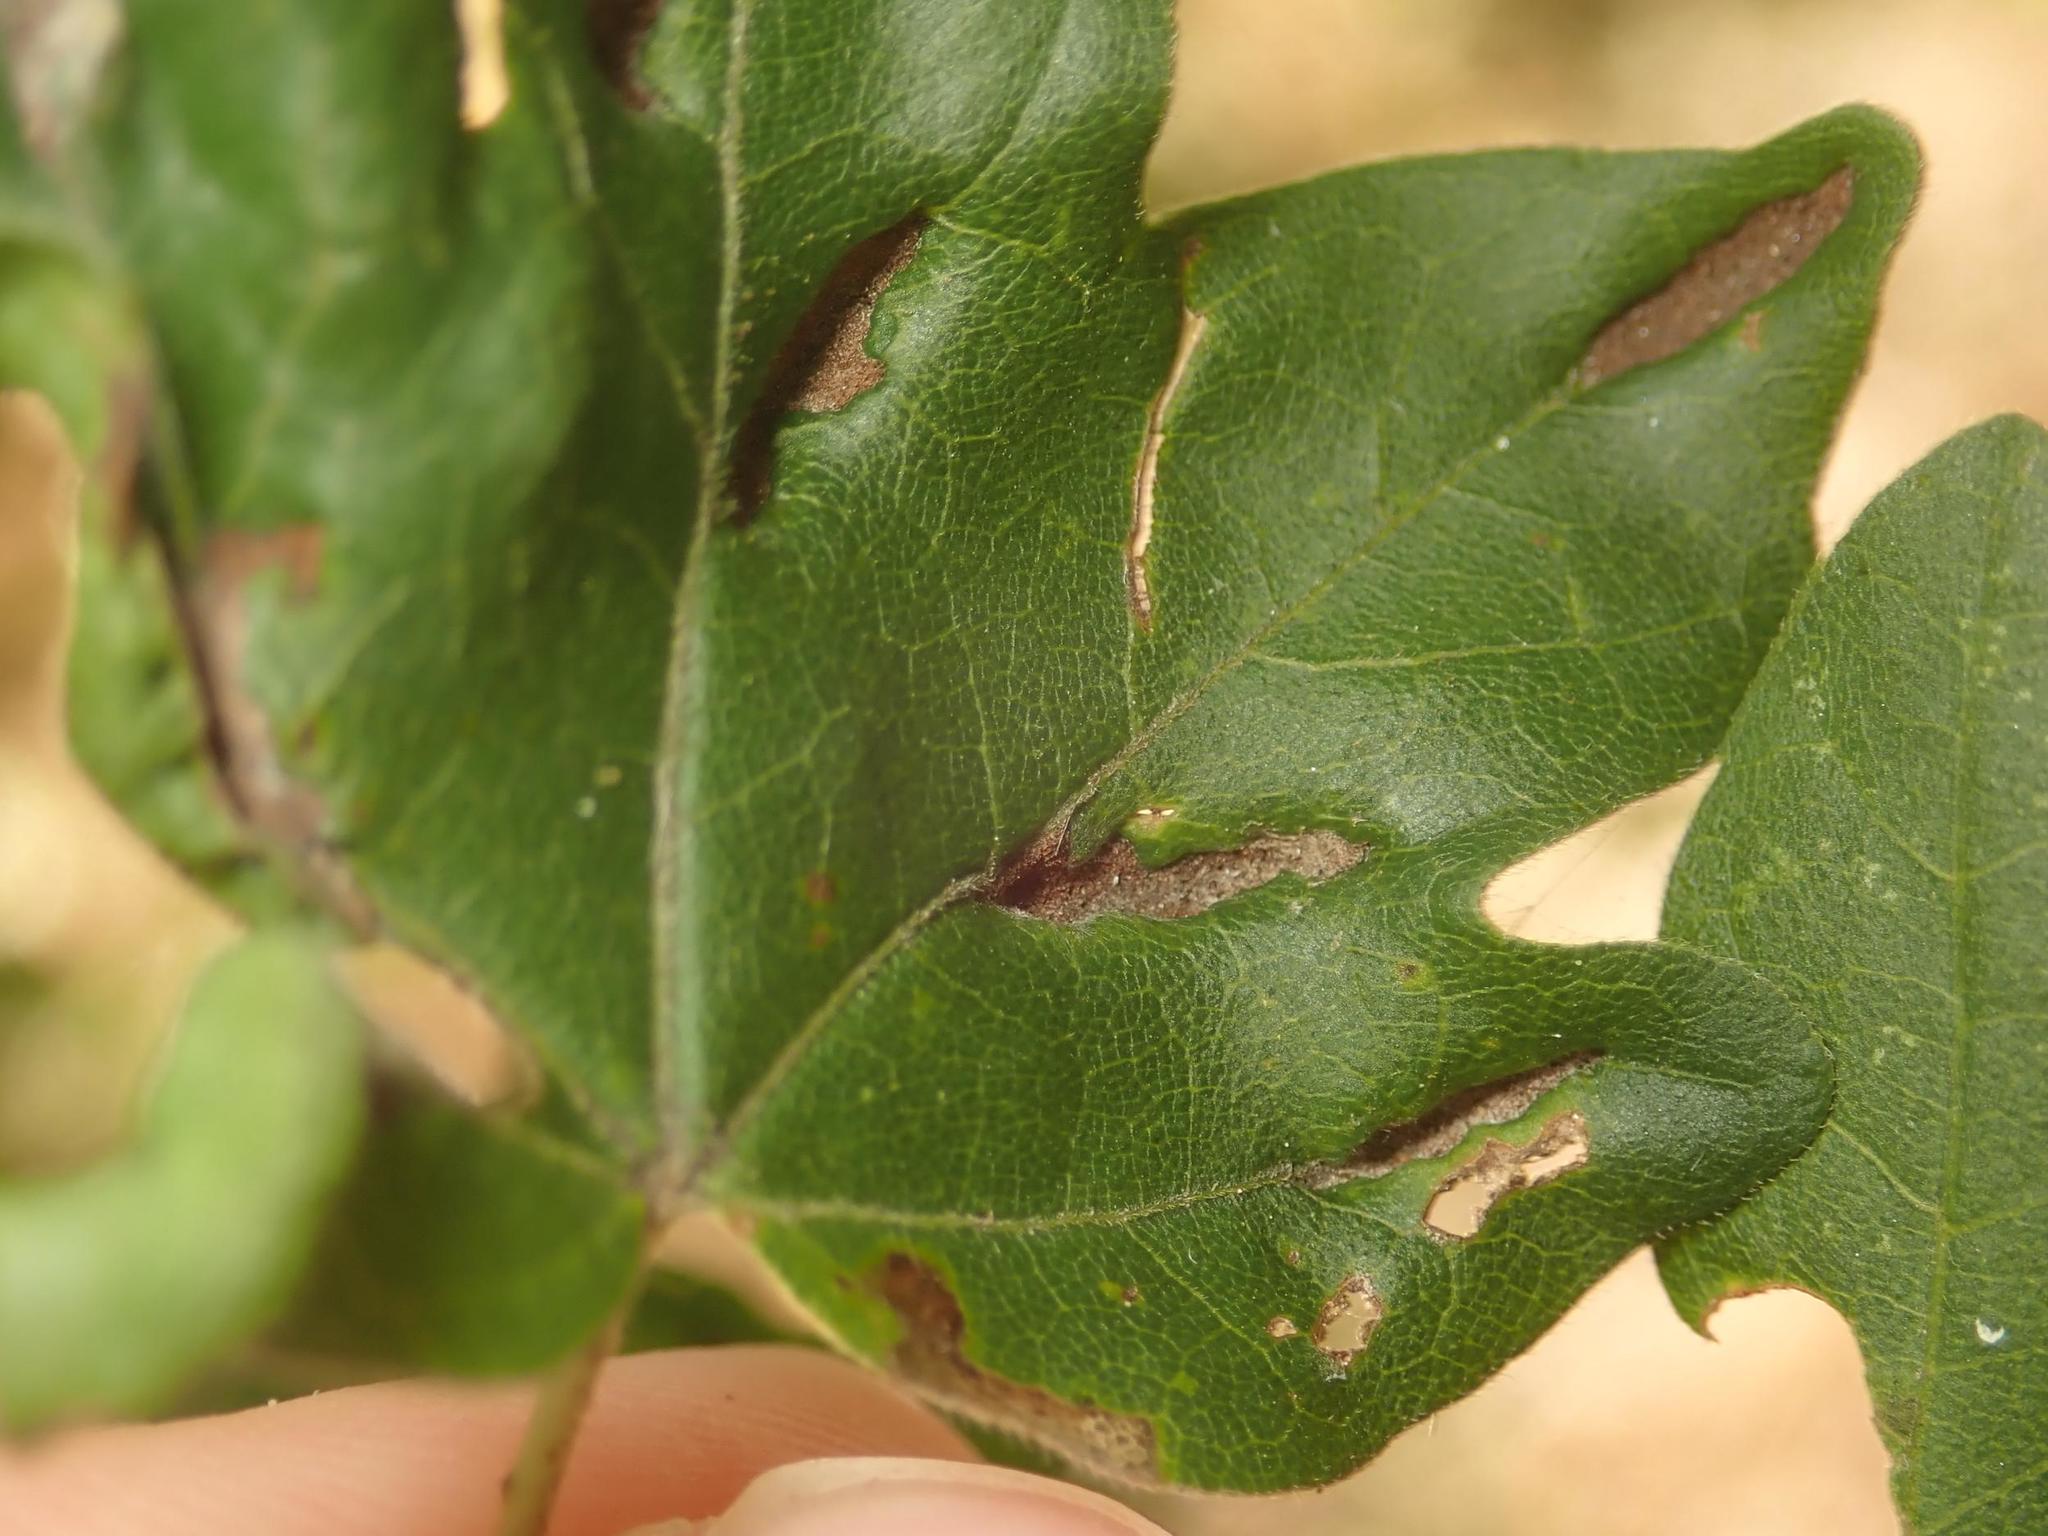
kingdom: Animalia
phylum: Arthropoda
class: Arachnida
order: Trombidiformes
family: Eriophyidae
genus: Aceria
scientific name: Aceria carinifex
